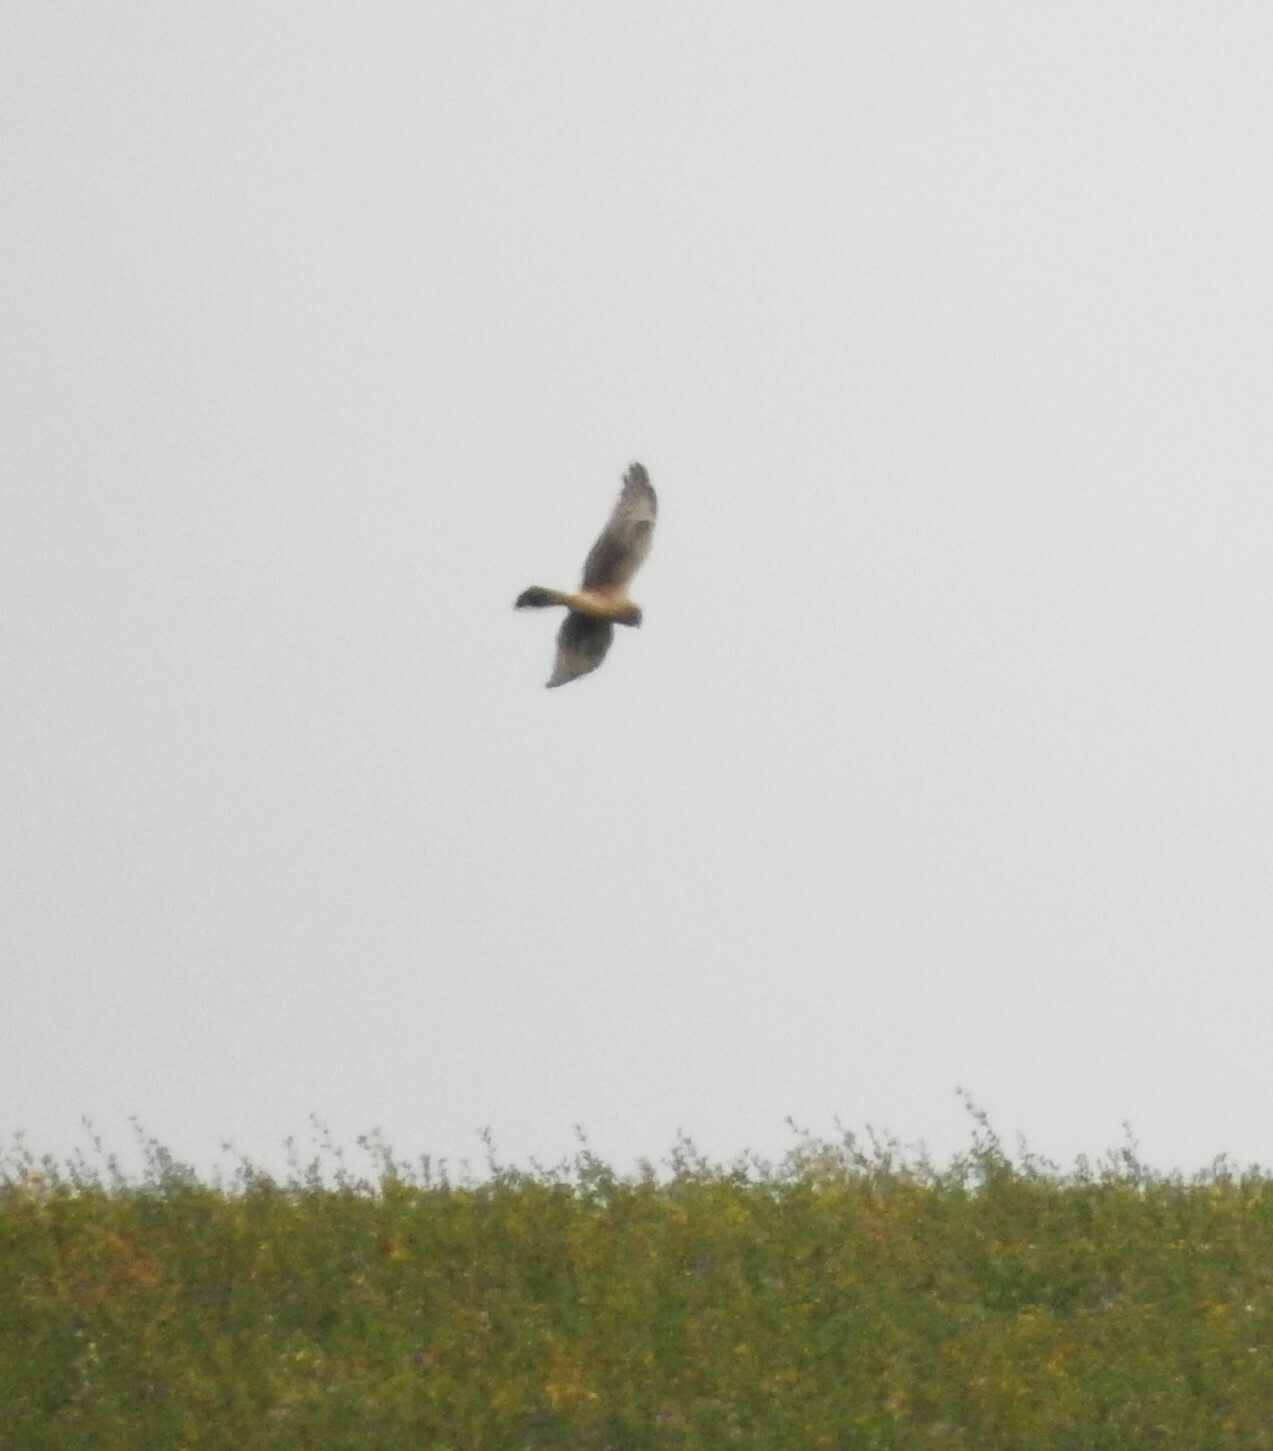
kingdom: Animalia
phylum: Chordata
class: Aves
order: Accipitriformes
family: Accipitridae
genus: Circus
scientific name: Circus cyaneus
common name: Hen harrier
